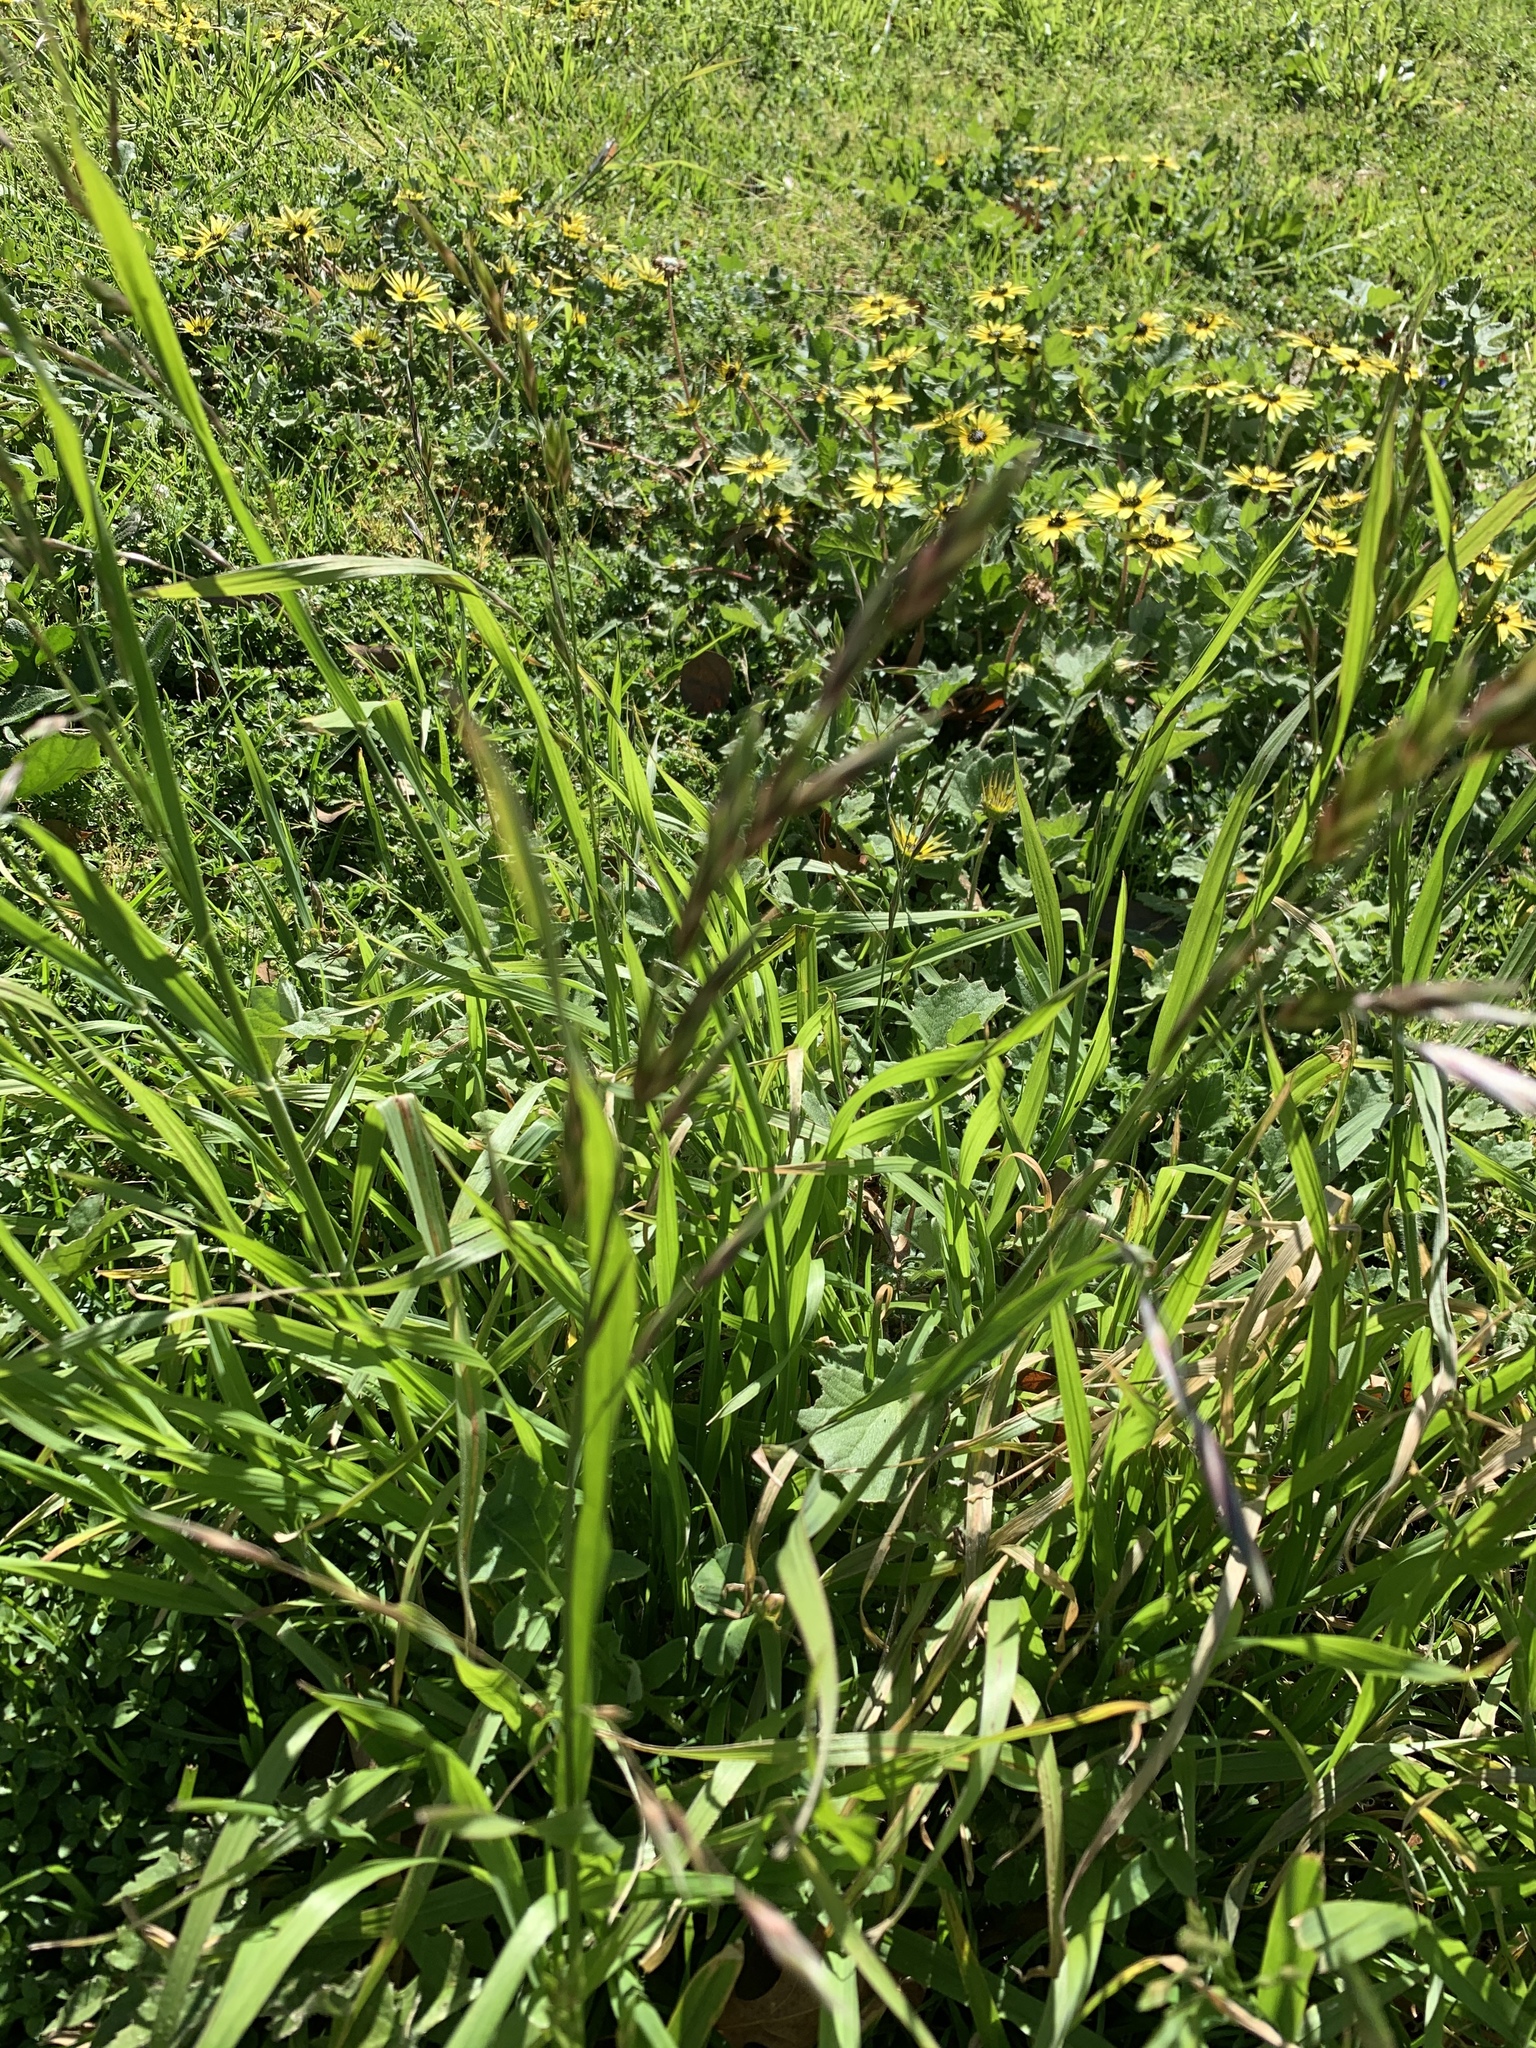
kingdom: Plantae
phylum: Tracheophyta
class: Liliopsida
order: Poales
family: Poaceae
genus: Bromus
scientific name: Bromus catharticus
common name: Rescuegrass
